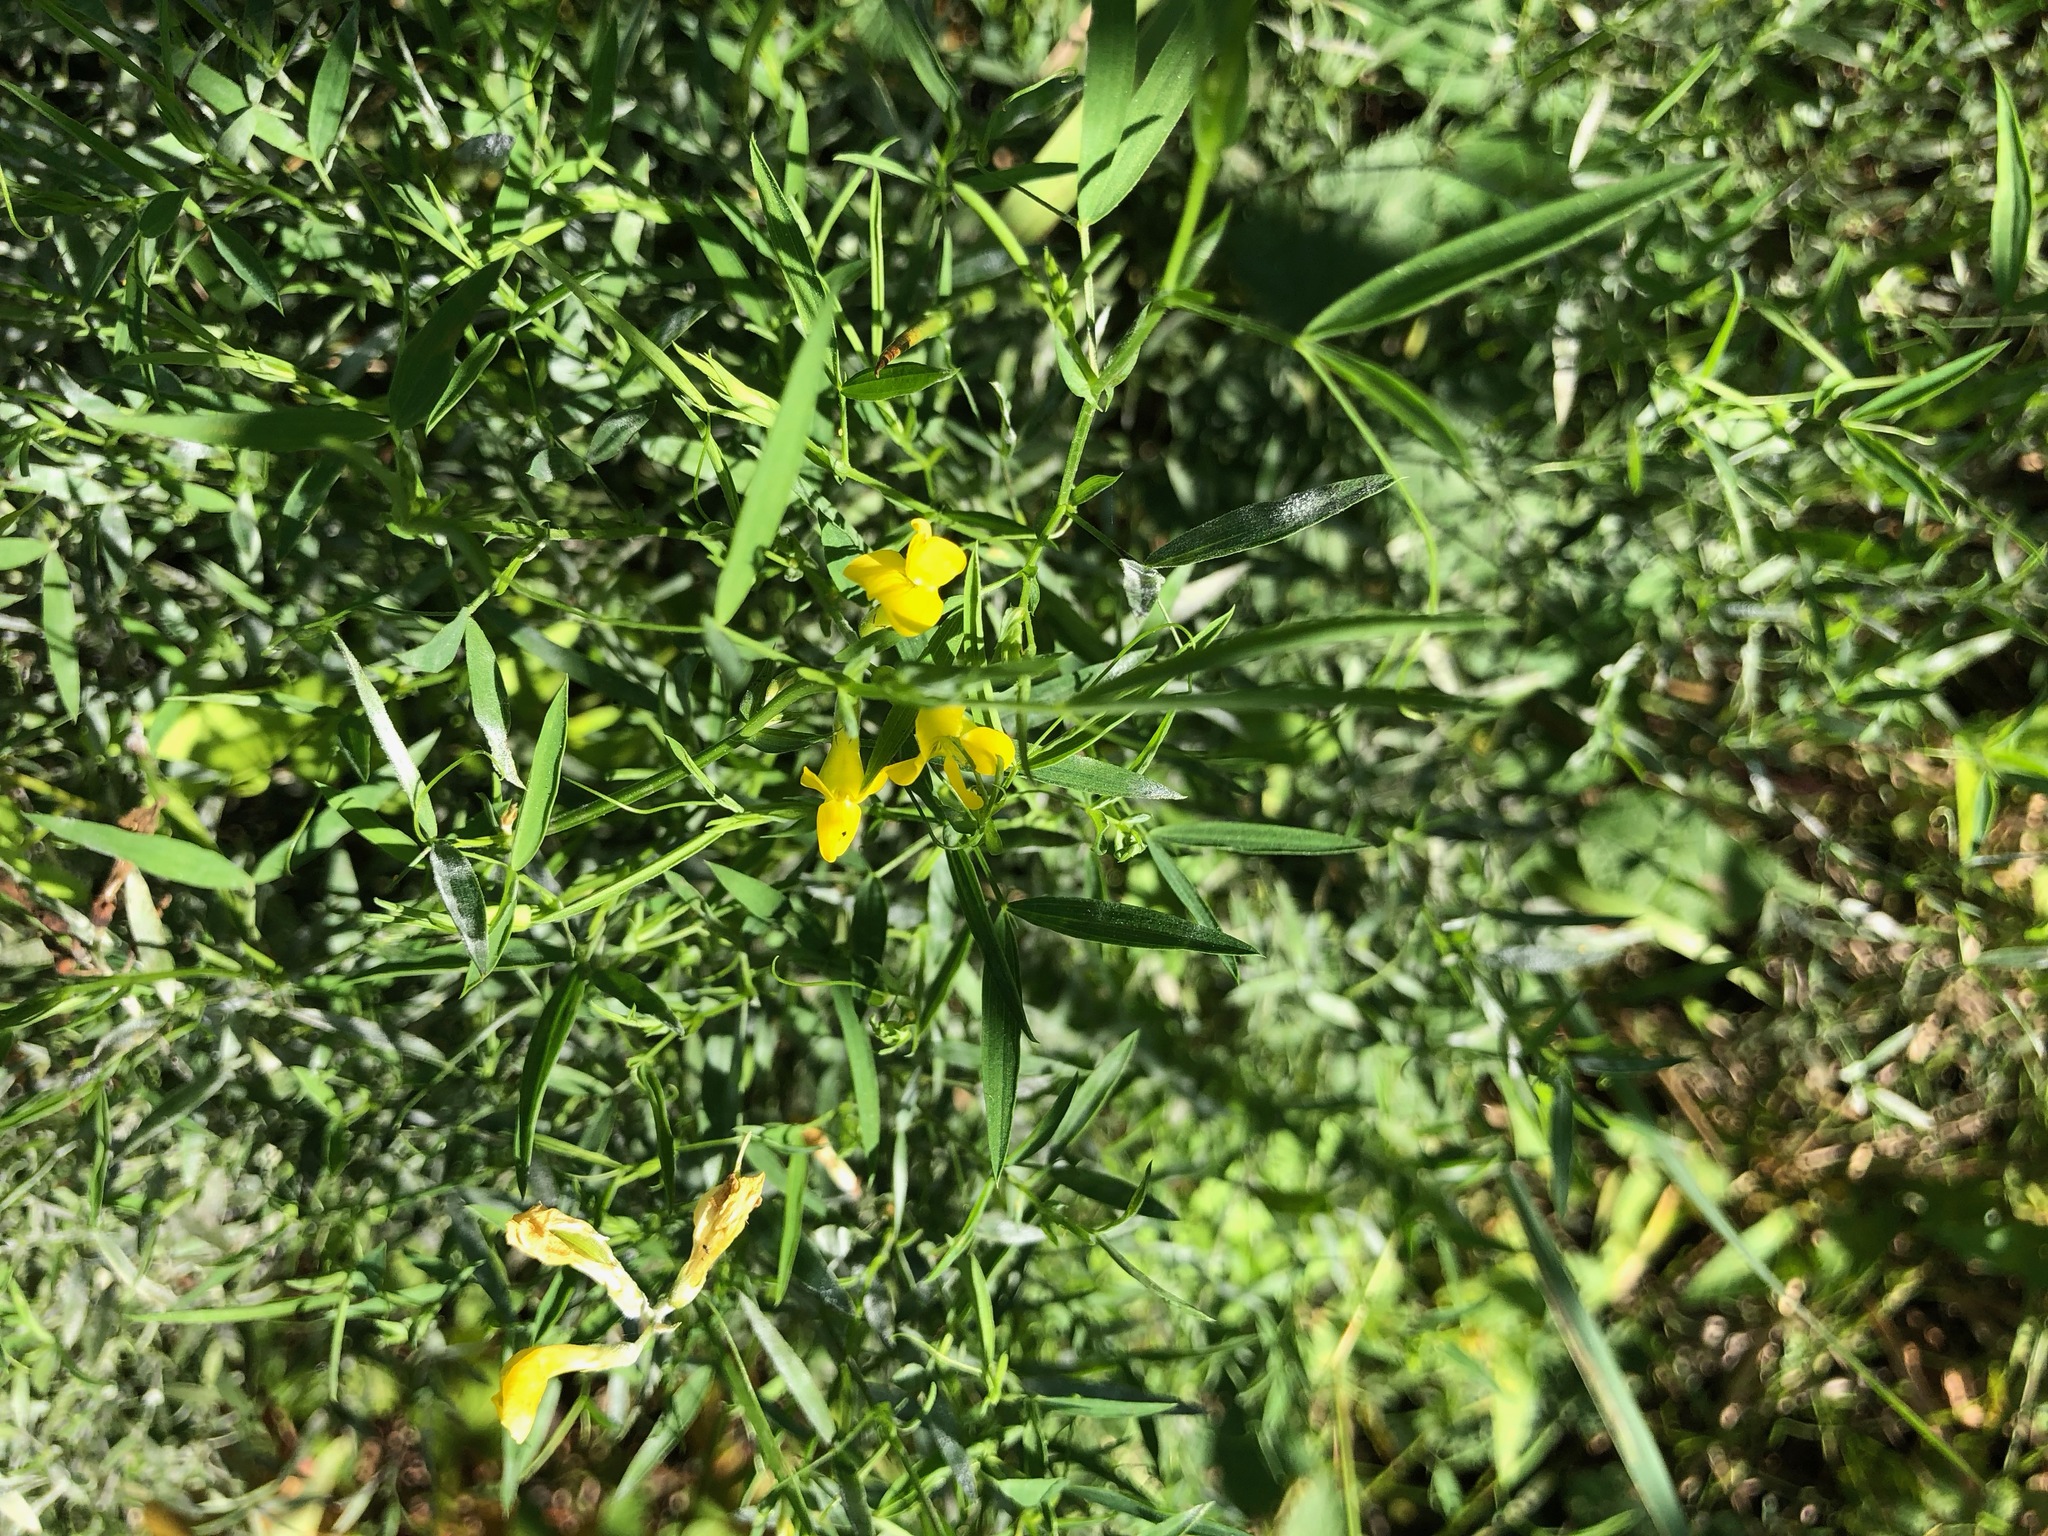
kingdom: Plantae
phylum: Tracheophyta
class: Magnoliopsida
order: Fabales
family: Fabaceae
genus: Lathyrus
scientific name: Lathyrus pratensis
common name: Meadow vetchling
